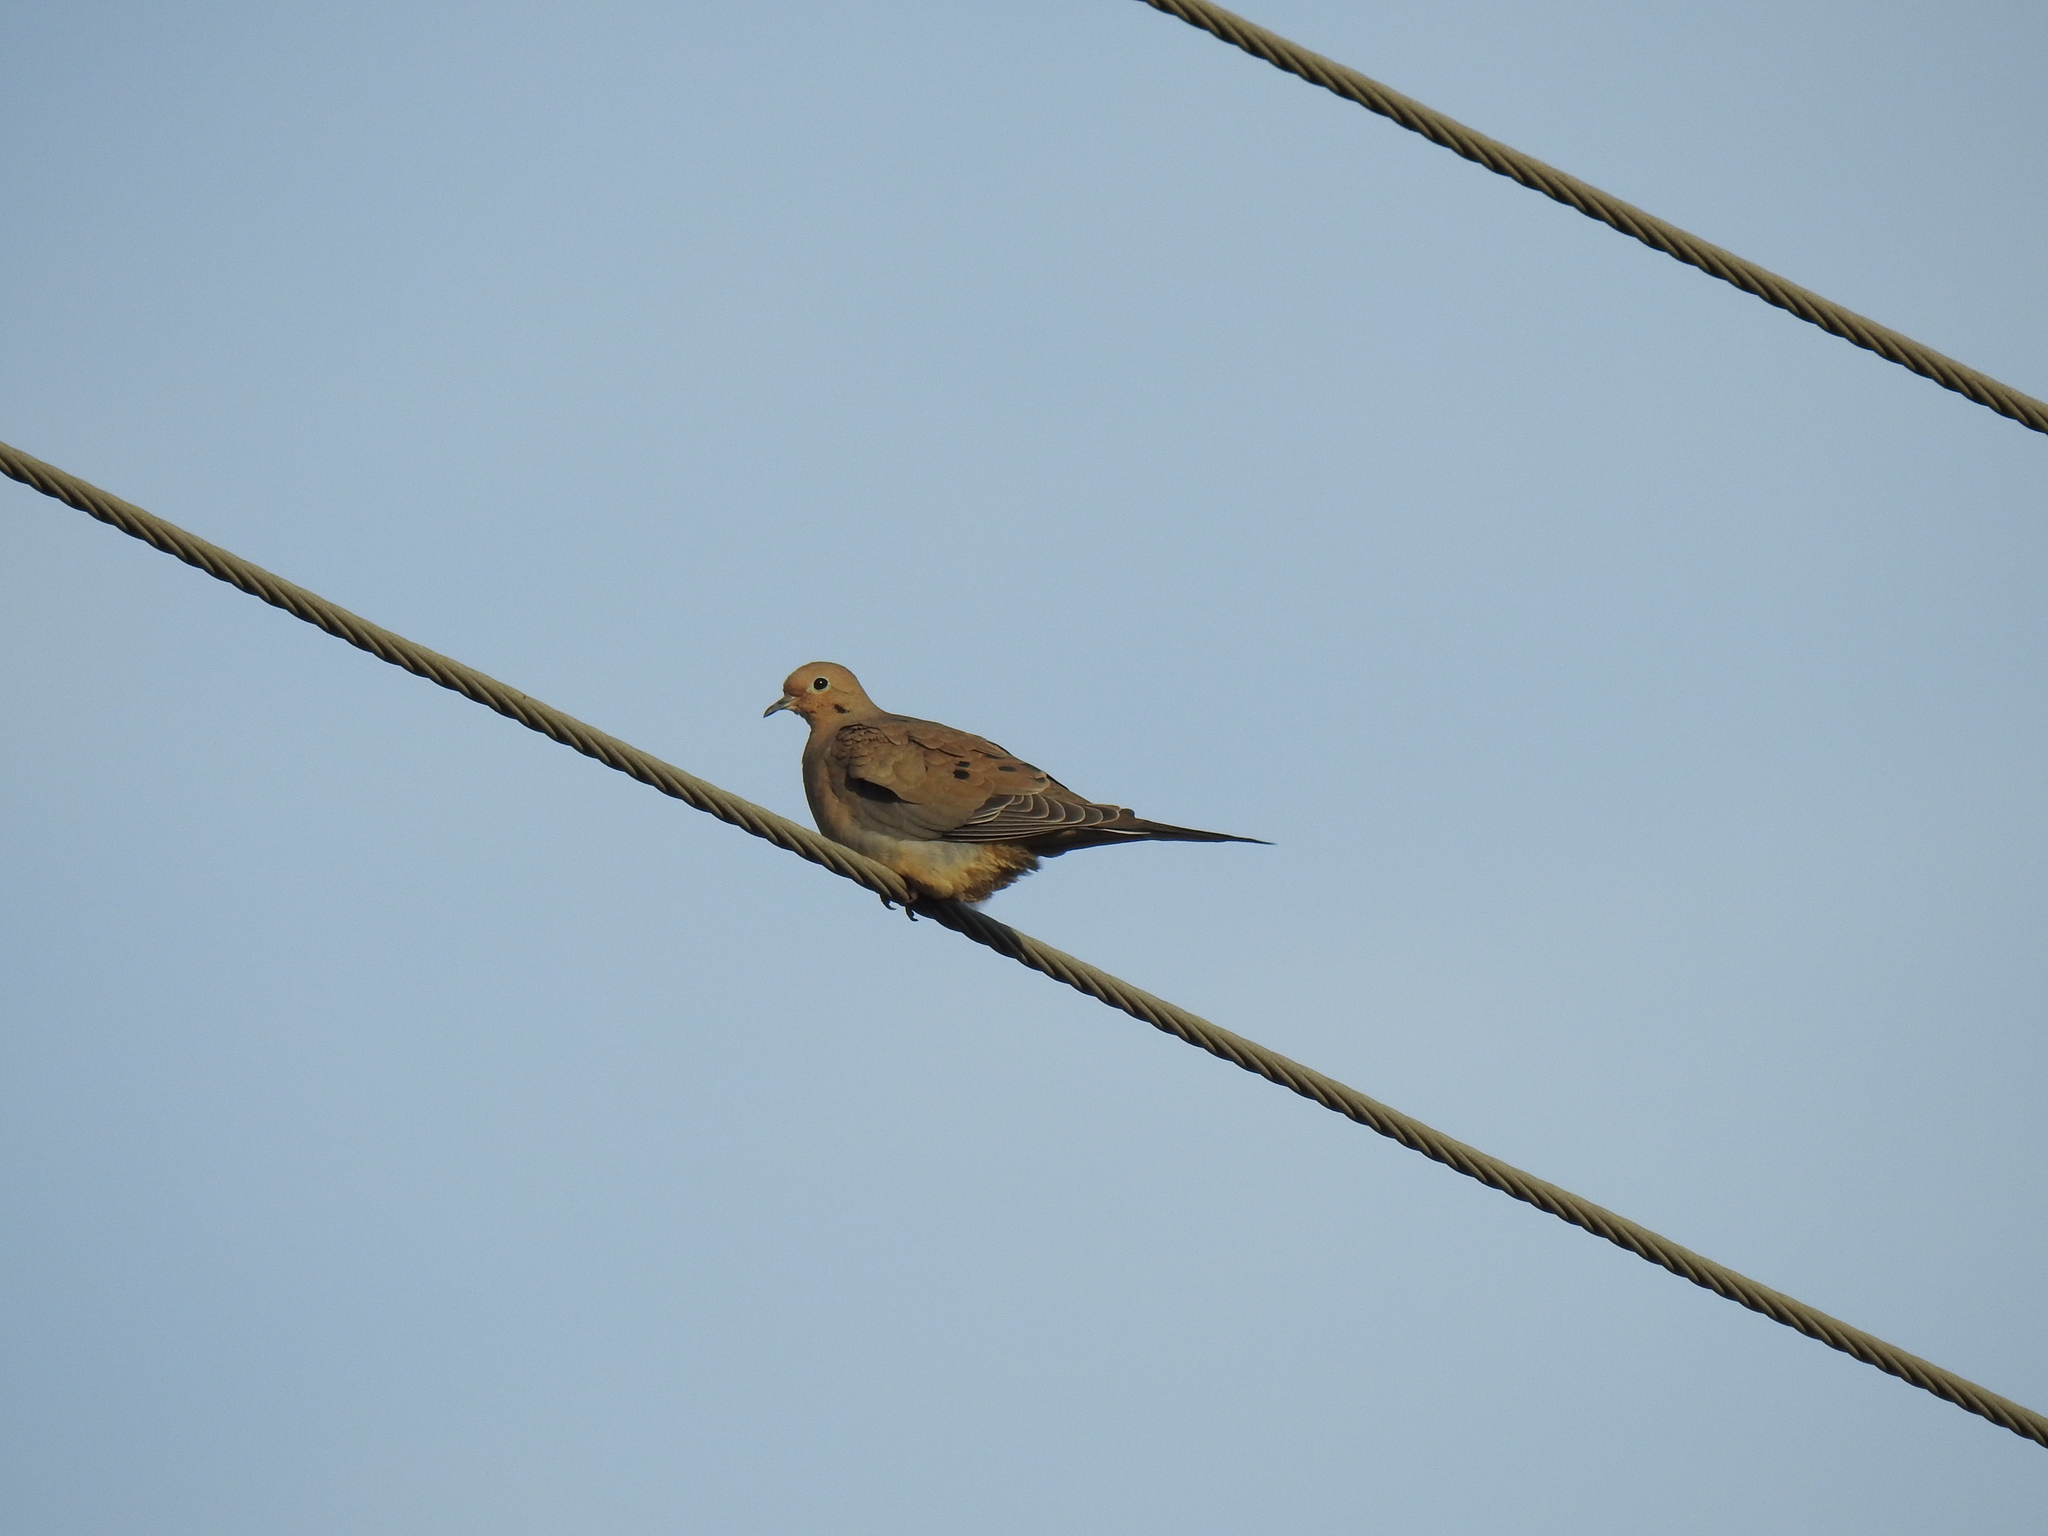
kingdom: Animalia
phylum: Chordata
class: Aves
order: Columbiformes
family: Columbidae
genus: Zenaida
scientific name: Zenaida macroura
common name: Mourning dove
